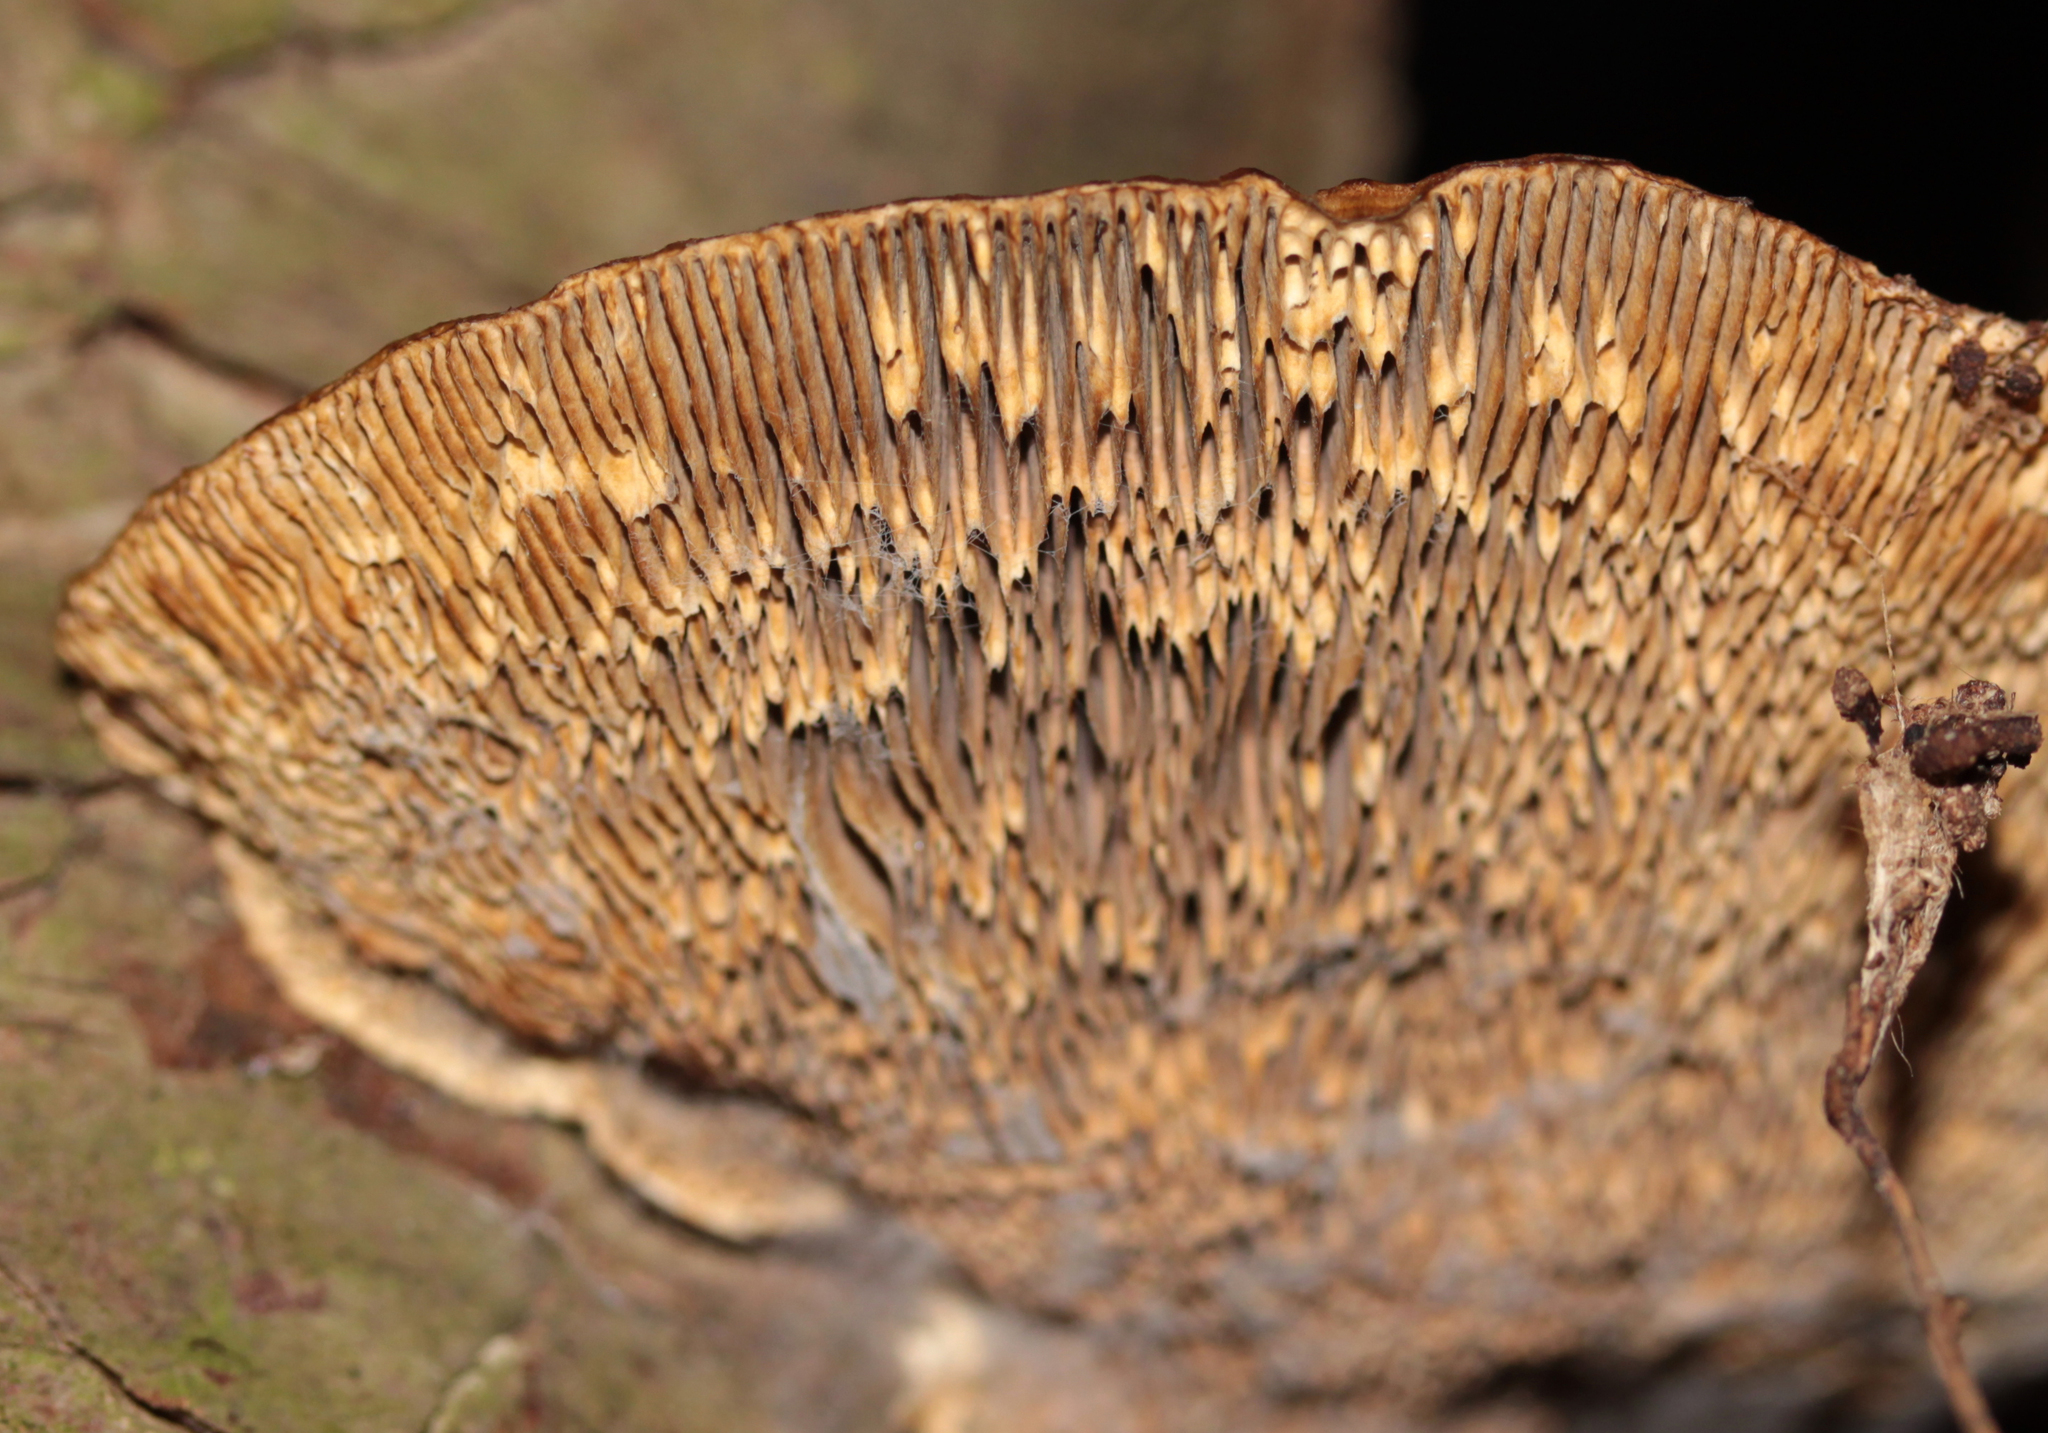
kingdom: Fungi
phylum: Basidiomycota
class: Agaricomycetes
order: Polyporales
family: Polyporaceae
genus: Daedaleopsis
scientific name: Daedaleopsis confragosa
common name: Blushing bracket
